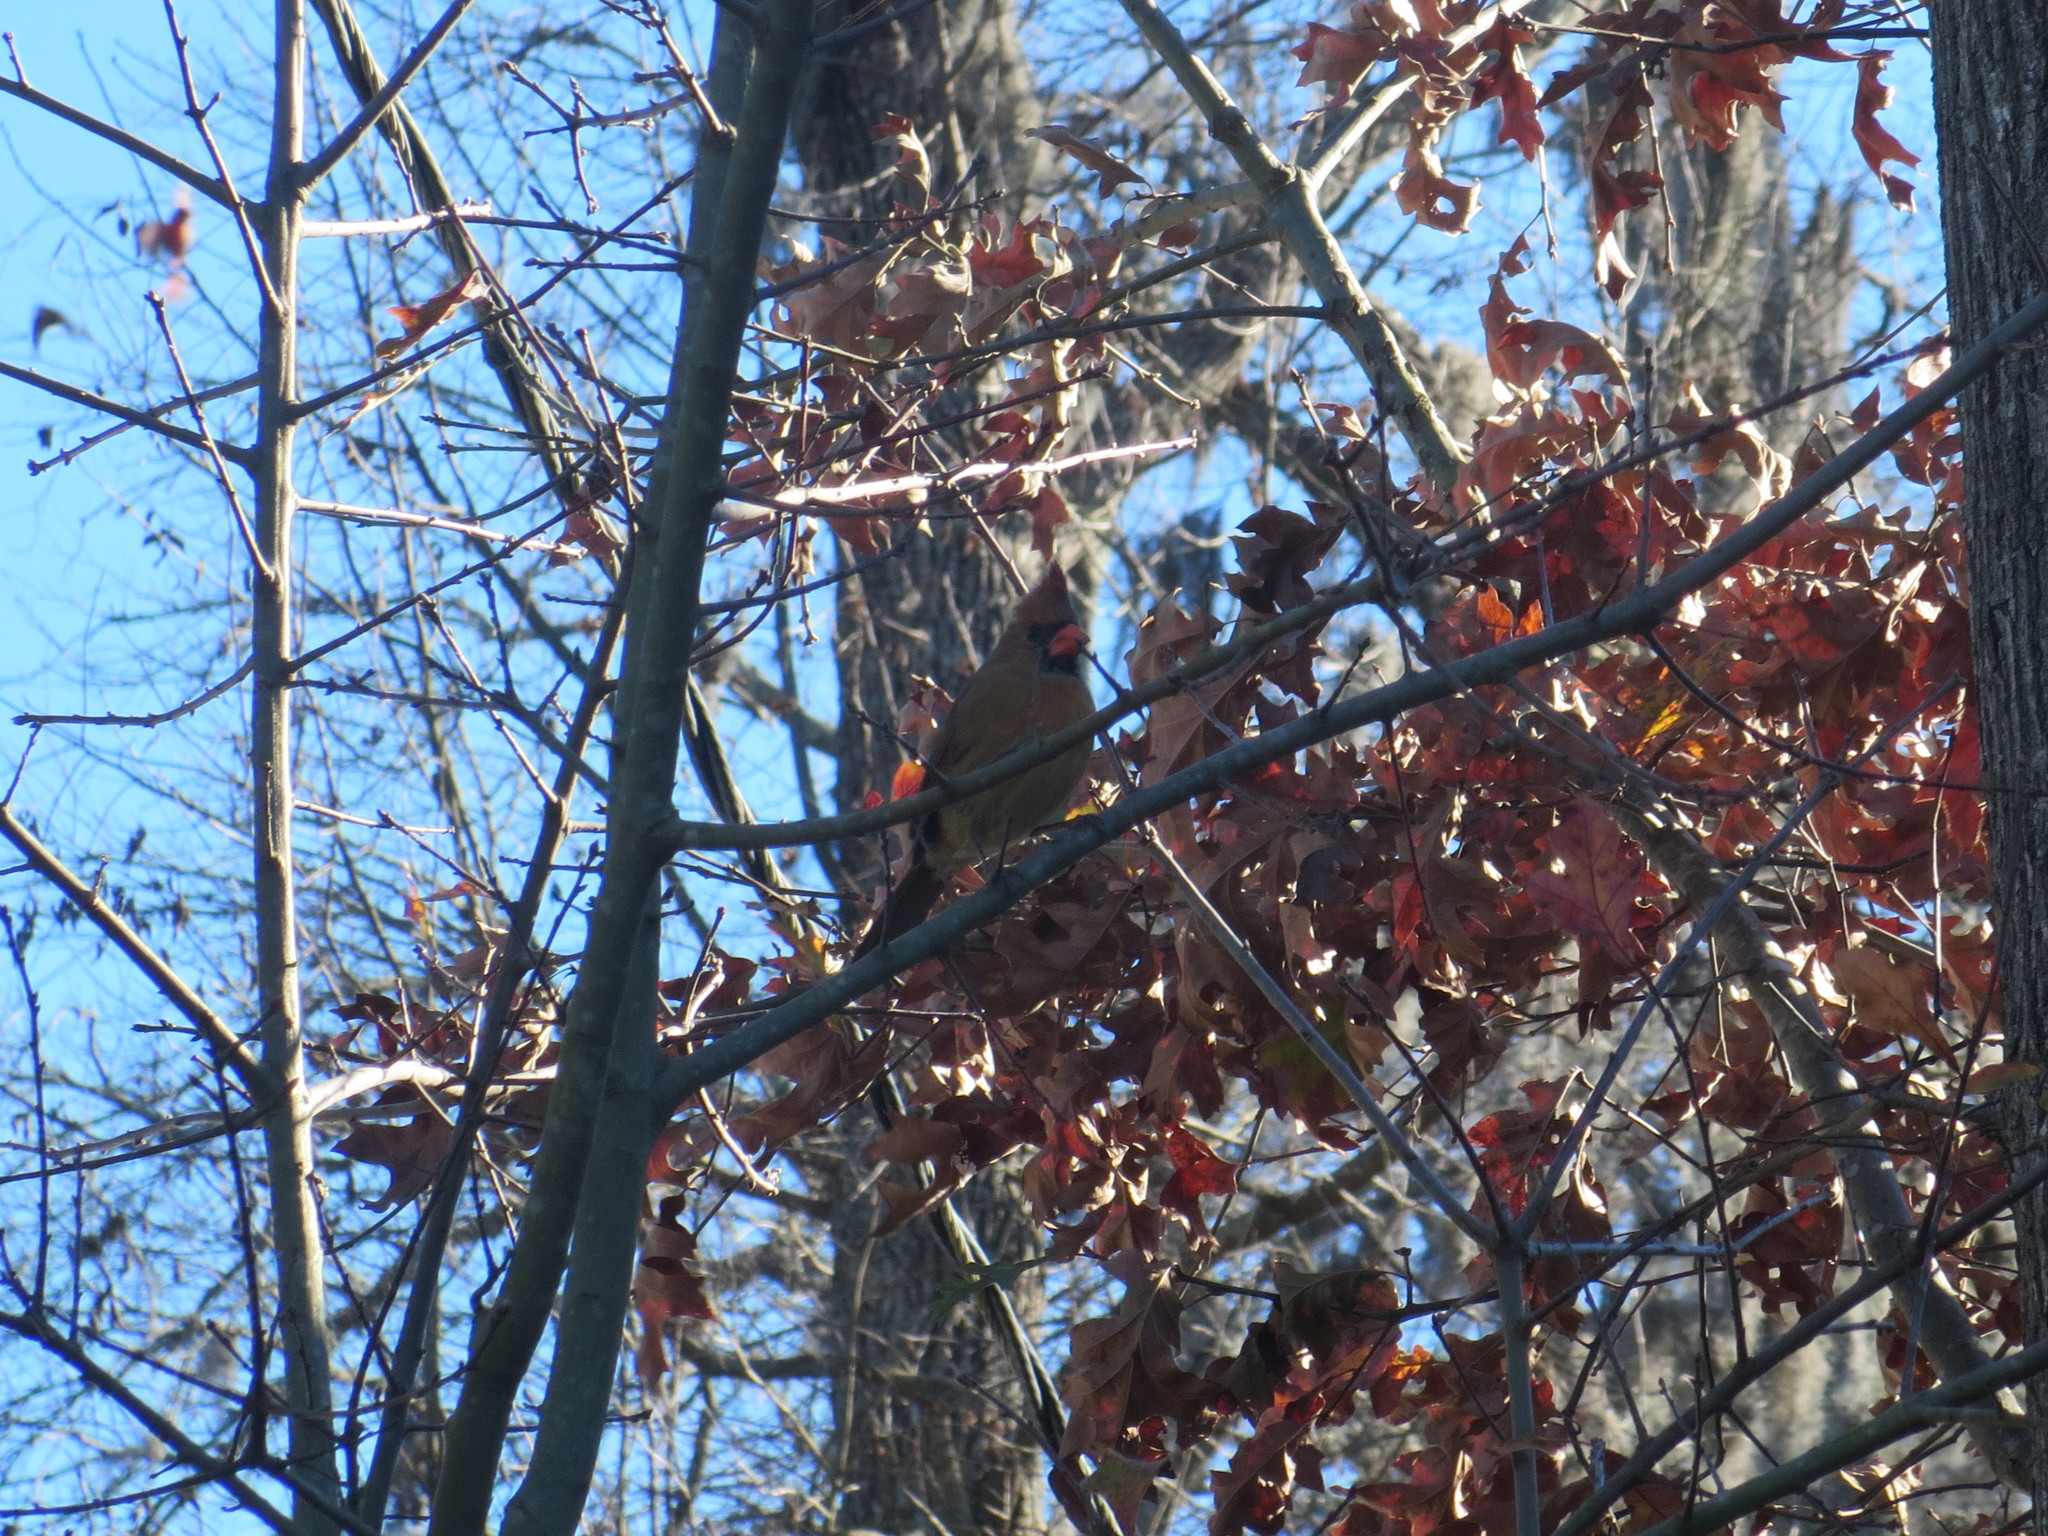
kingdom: Animalia
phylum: Chordata
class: Aves
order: Passeriformes
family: Cardinalidae
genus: Cardinalis
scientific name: Cardinalis cardinalis
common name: Northern cardinal
